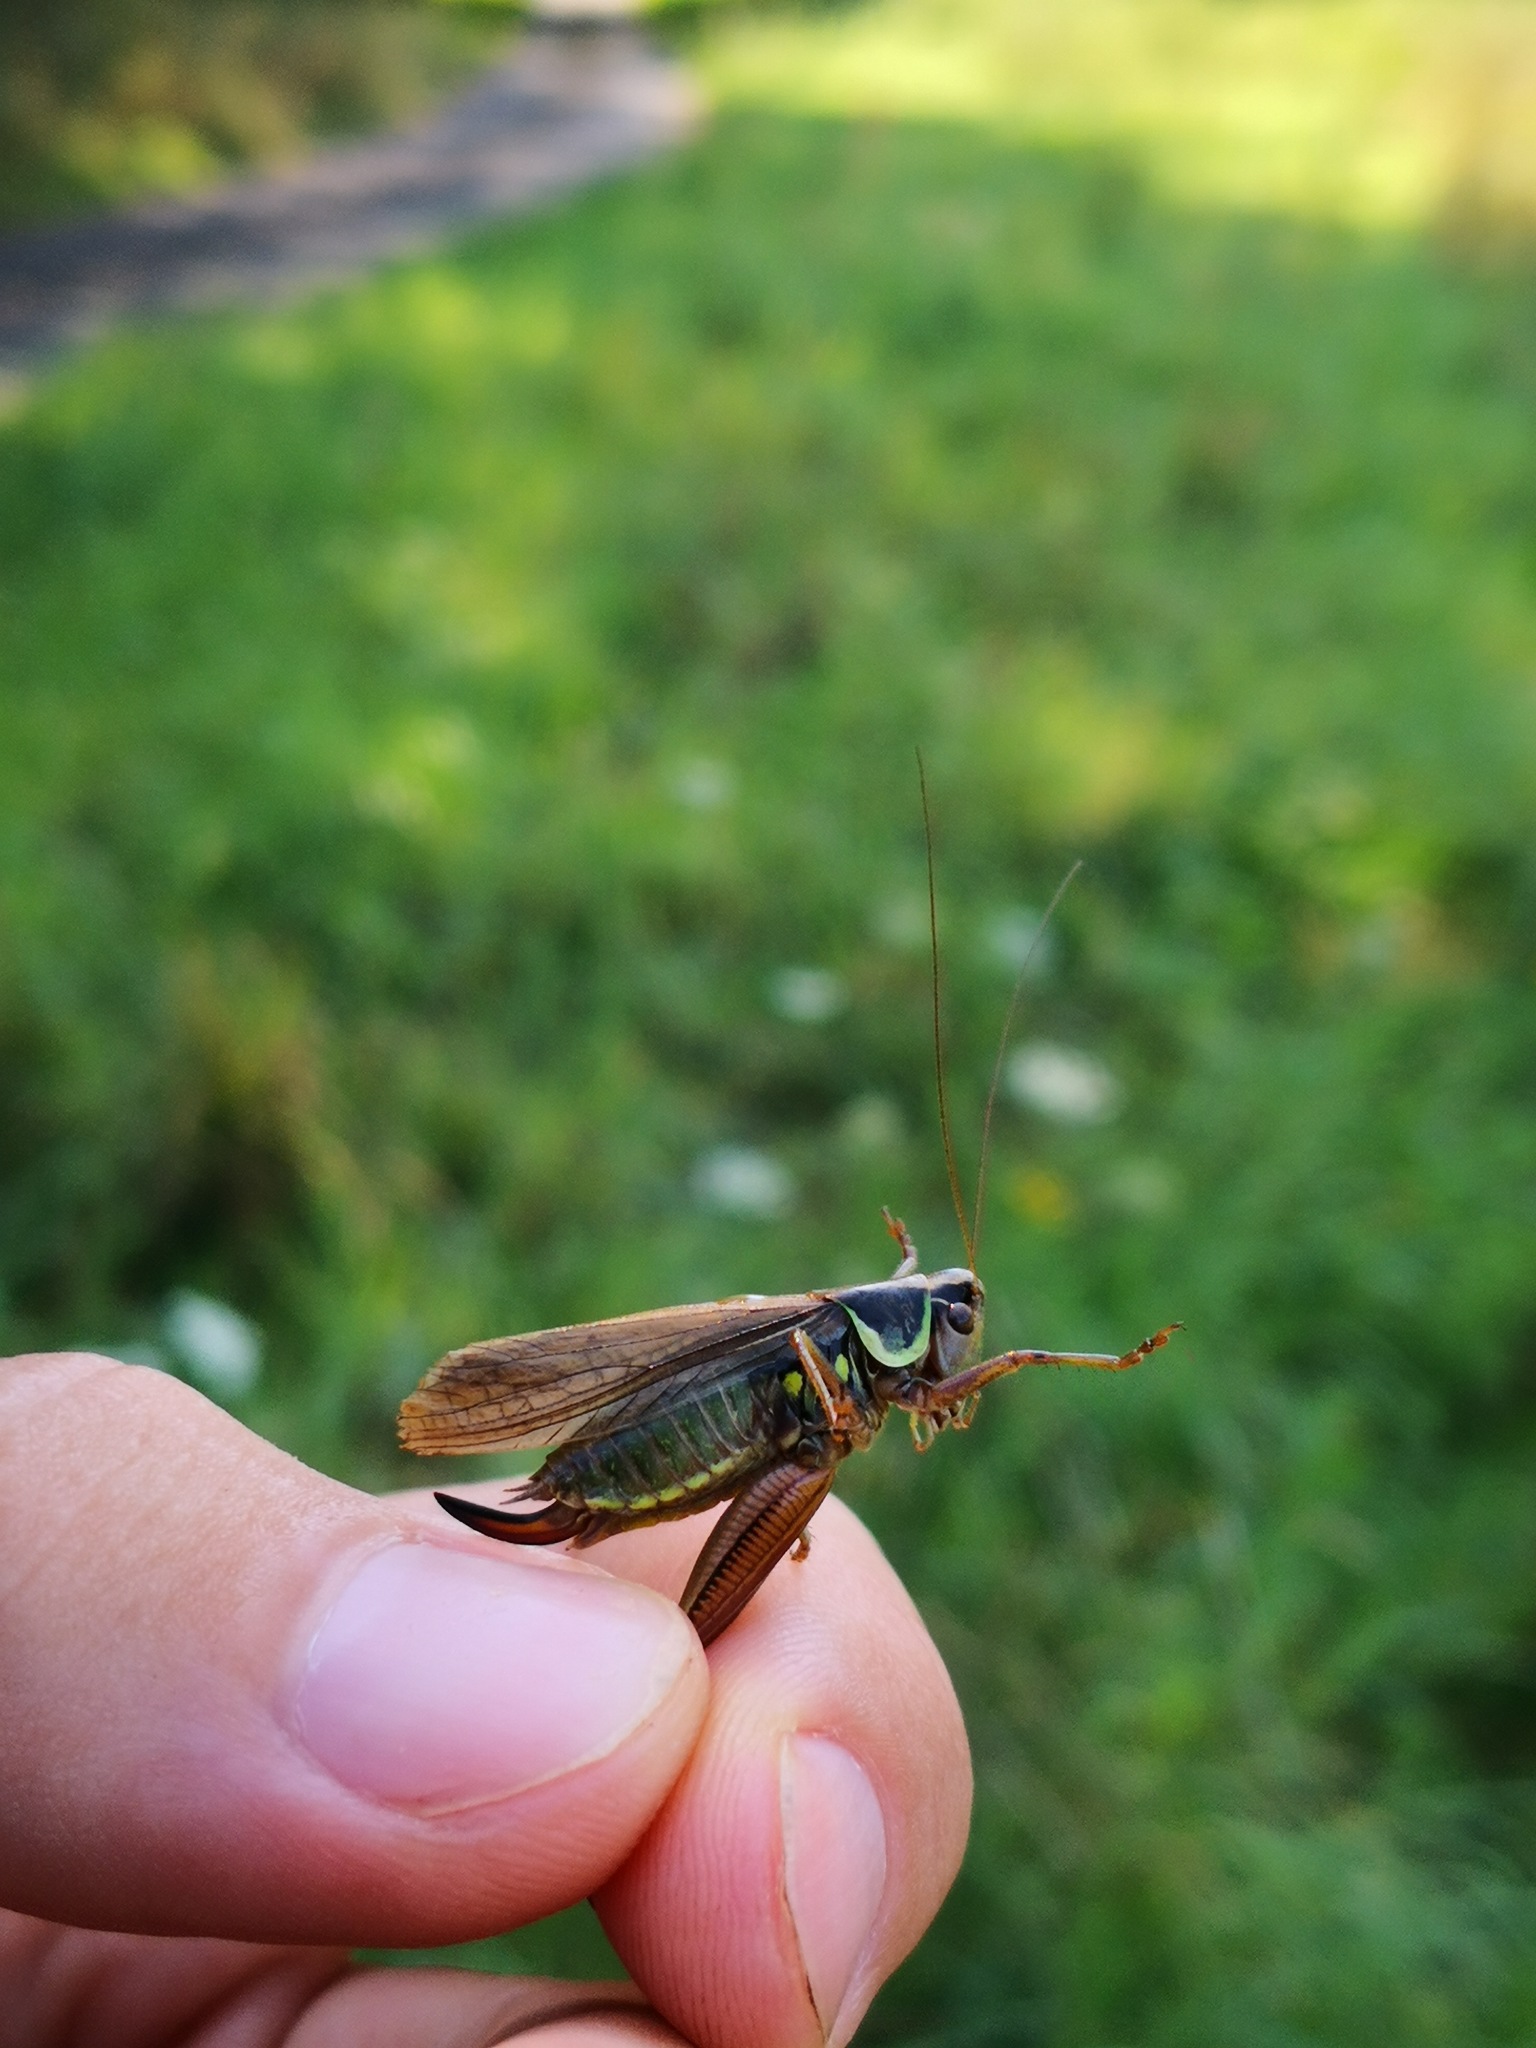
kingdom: Animalia
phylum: Arthropoda
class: Insecta
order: Orthoptera
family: Tettigoniidae
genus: Roeseliana
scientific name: Roeseliana roeselii
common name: Roesel's bush cricket
